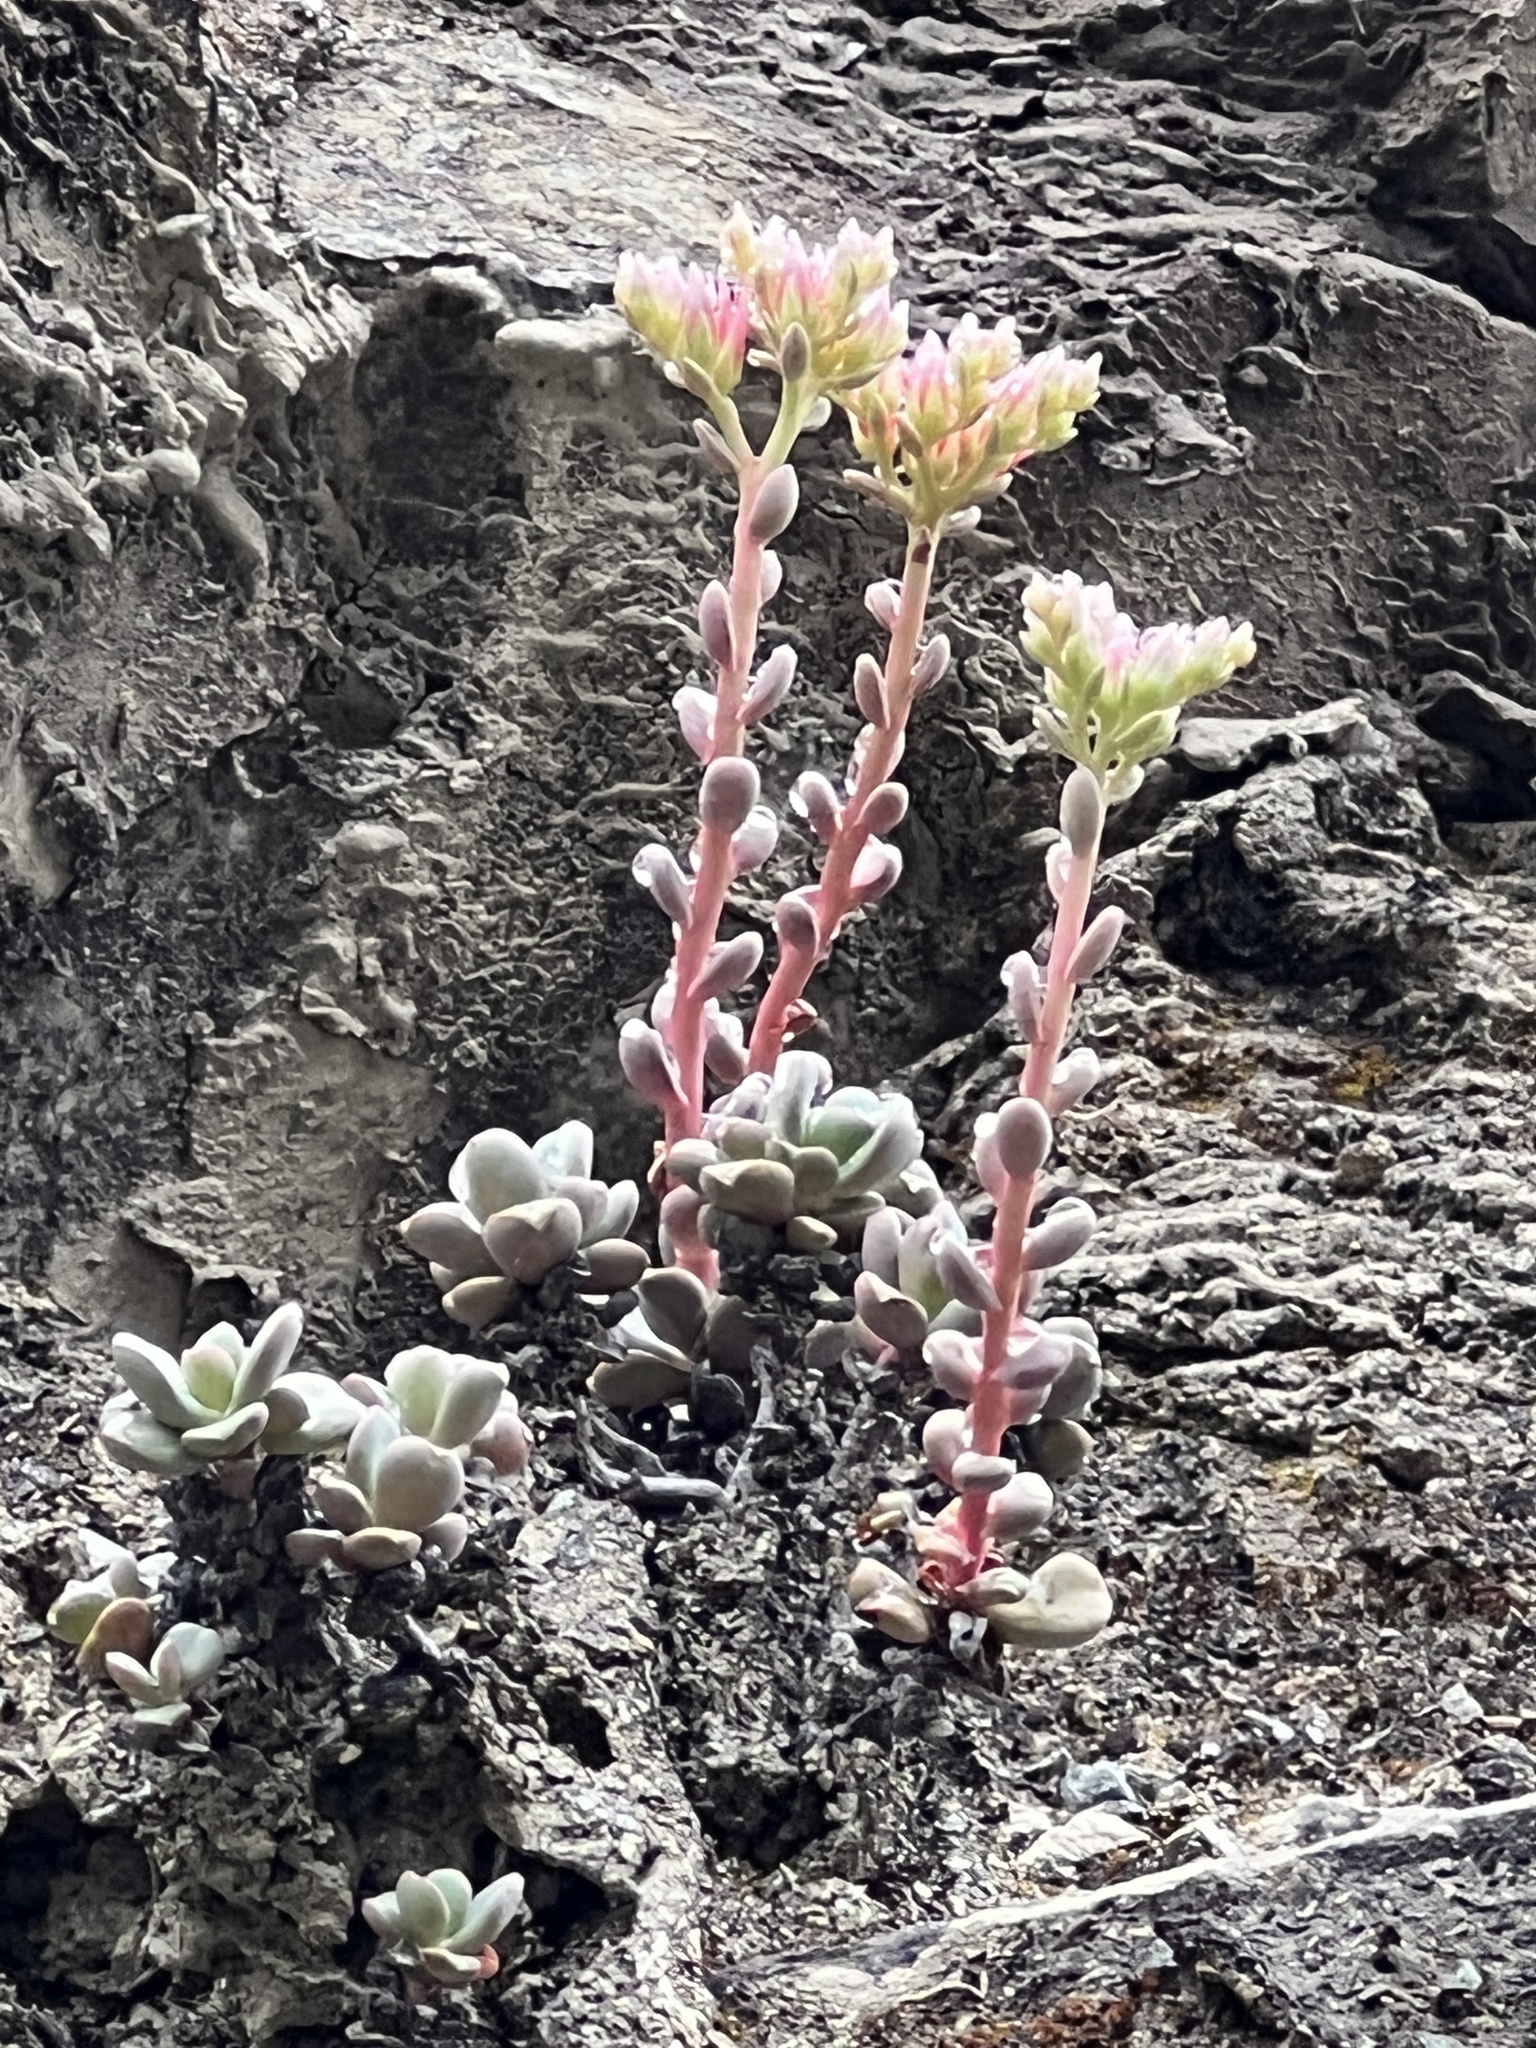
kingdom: Plantae
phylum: Tracheophyta
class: Magnoliopsida
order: Saxifragales
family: Crassulaceae
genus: Sedum
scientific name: Sedum laxum
